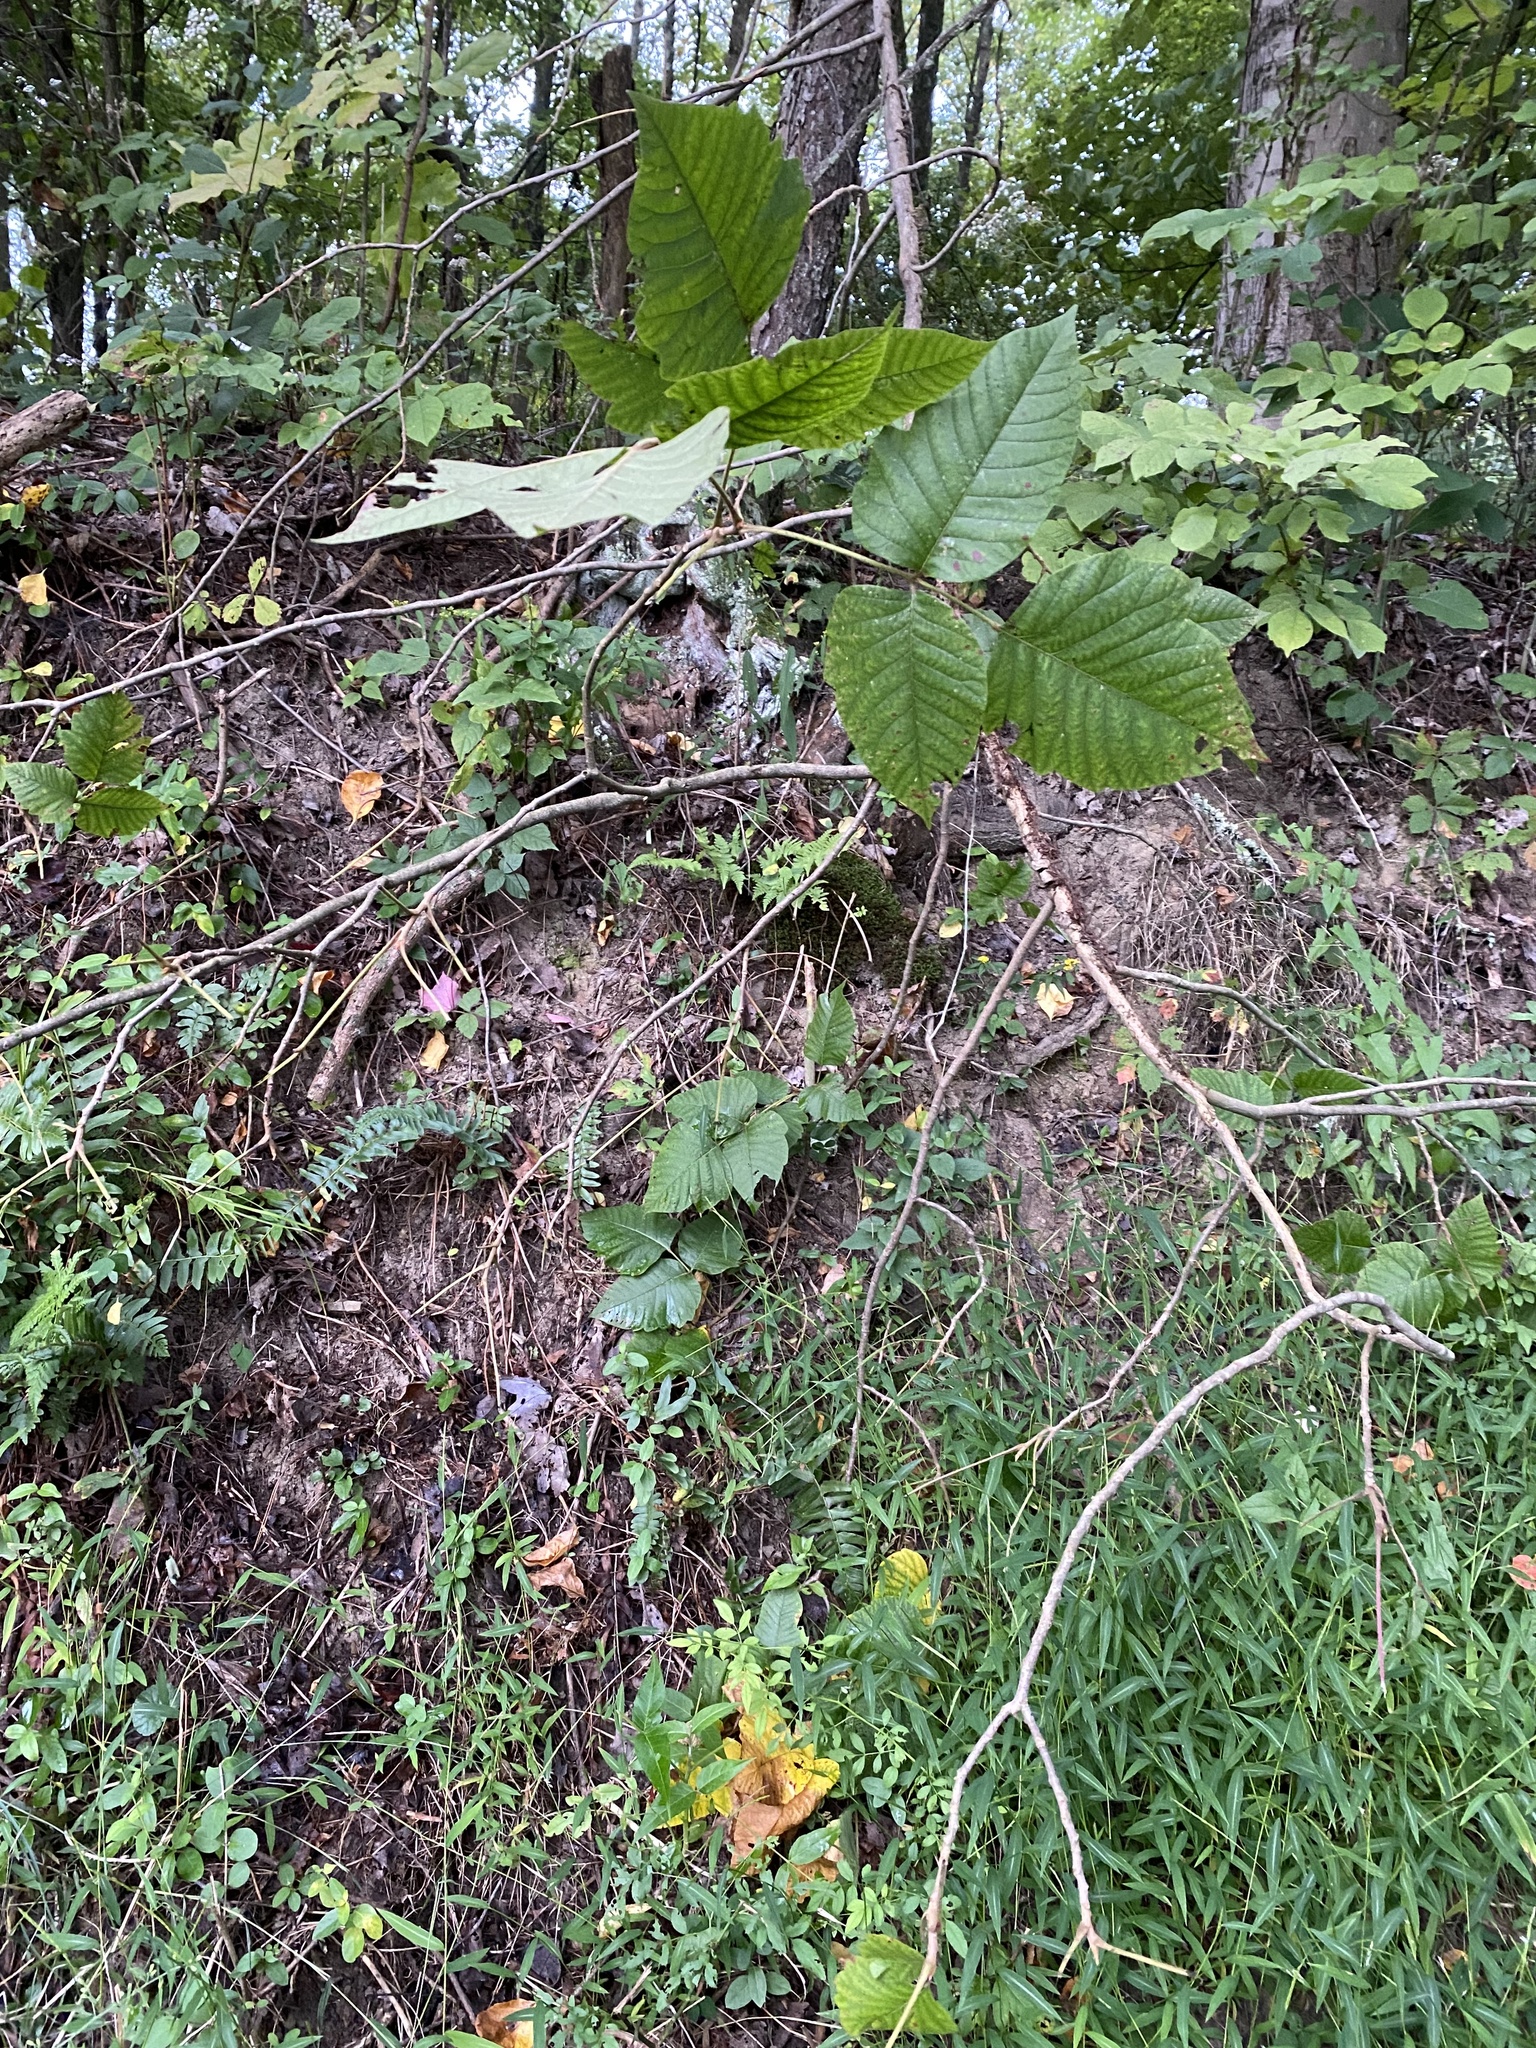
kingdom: Plantae
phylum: Tracheophyta
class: Magnoliopsida
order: Sapindales
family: Anacardiaceae
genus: Toxicodendron
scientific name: Toxicodendron radicans
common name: Poison ivy
